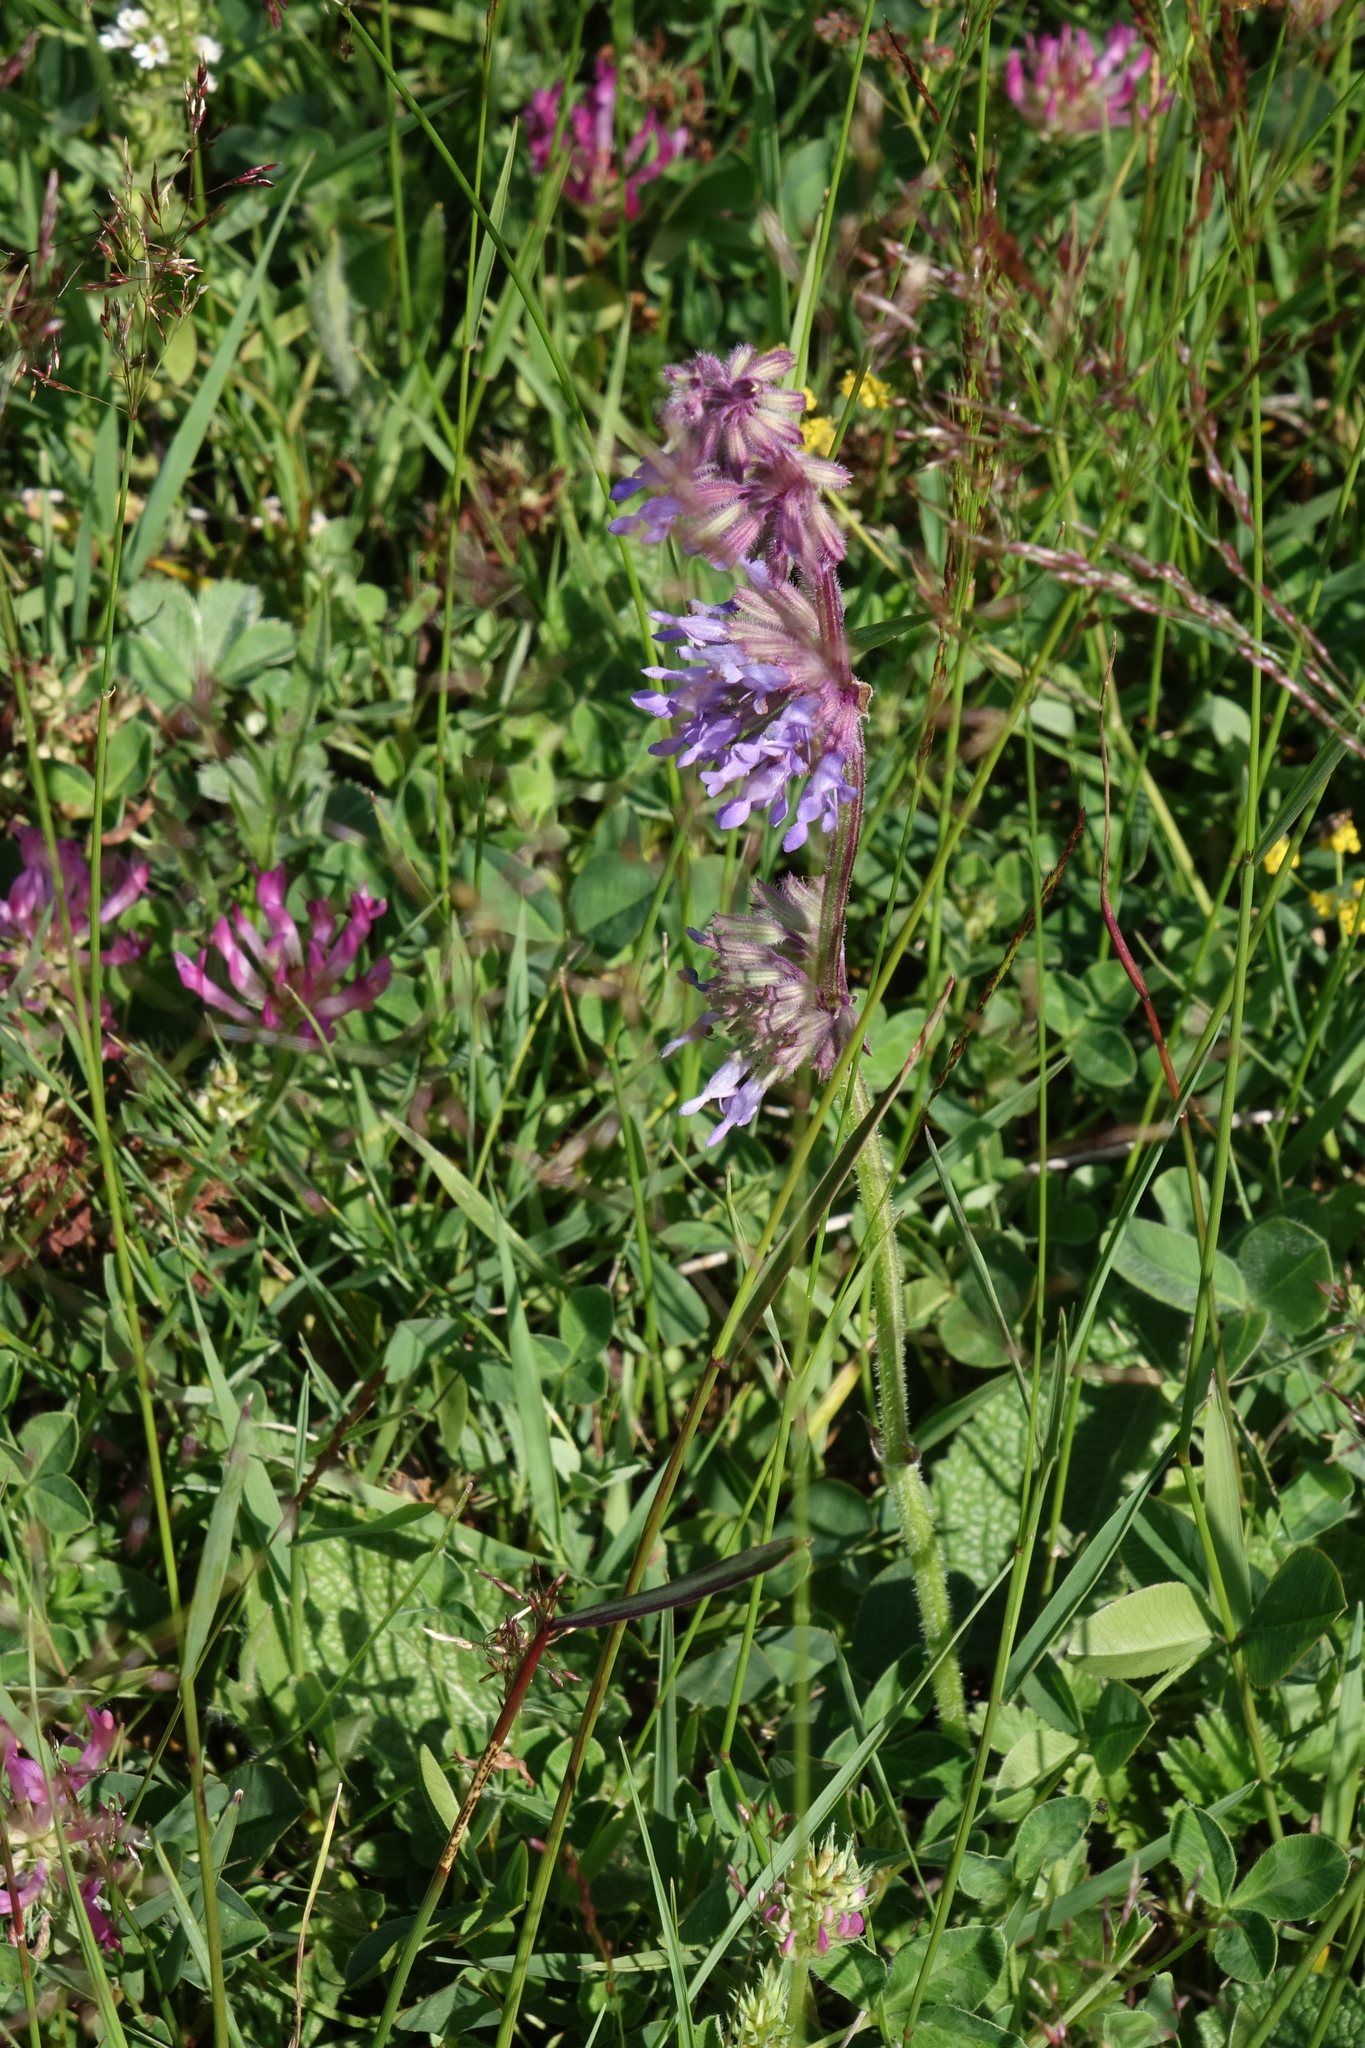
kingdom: Plantae
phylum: Tracheophyta
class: Magnoliopsida
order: Lamiales
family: Lamiaceae
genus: Salvia
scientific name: Salvia verticillata
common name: Whorled clary
